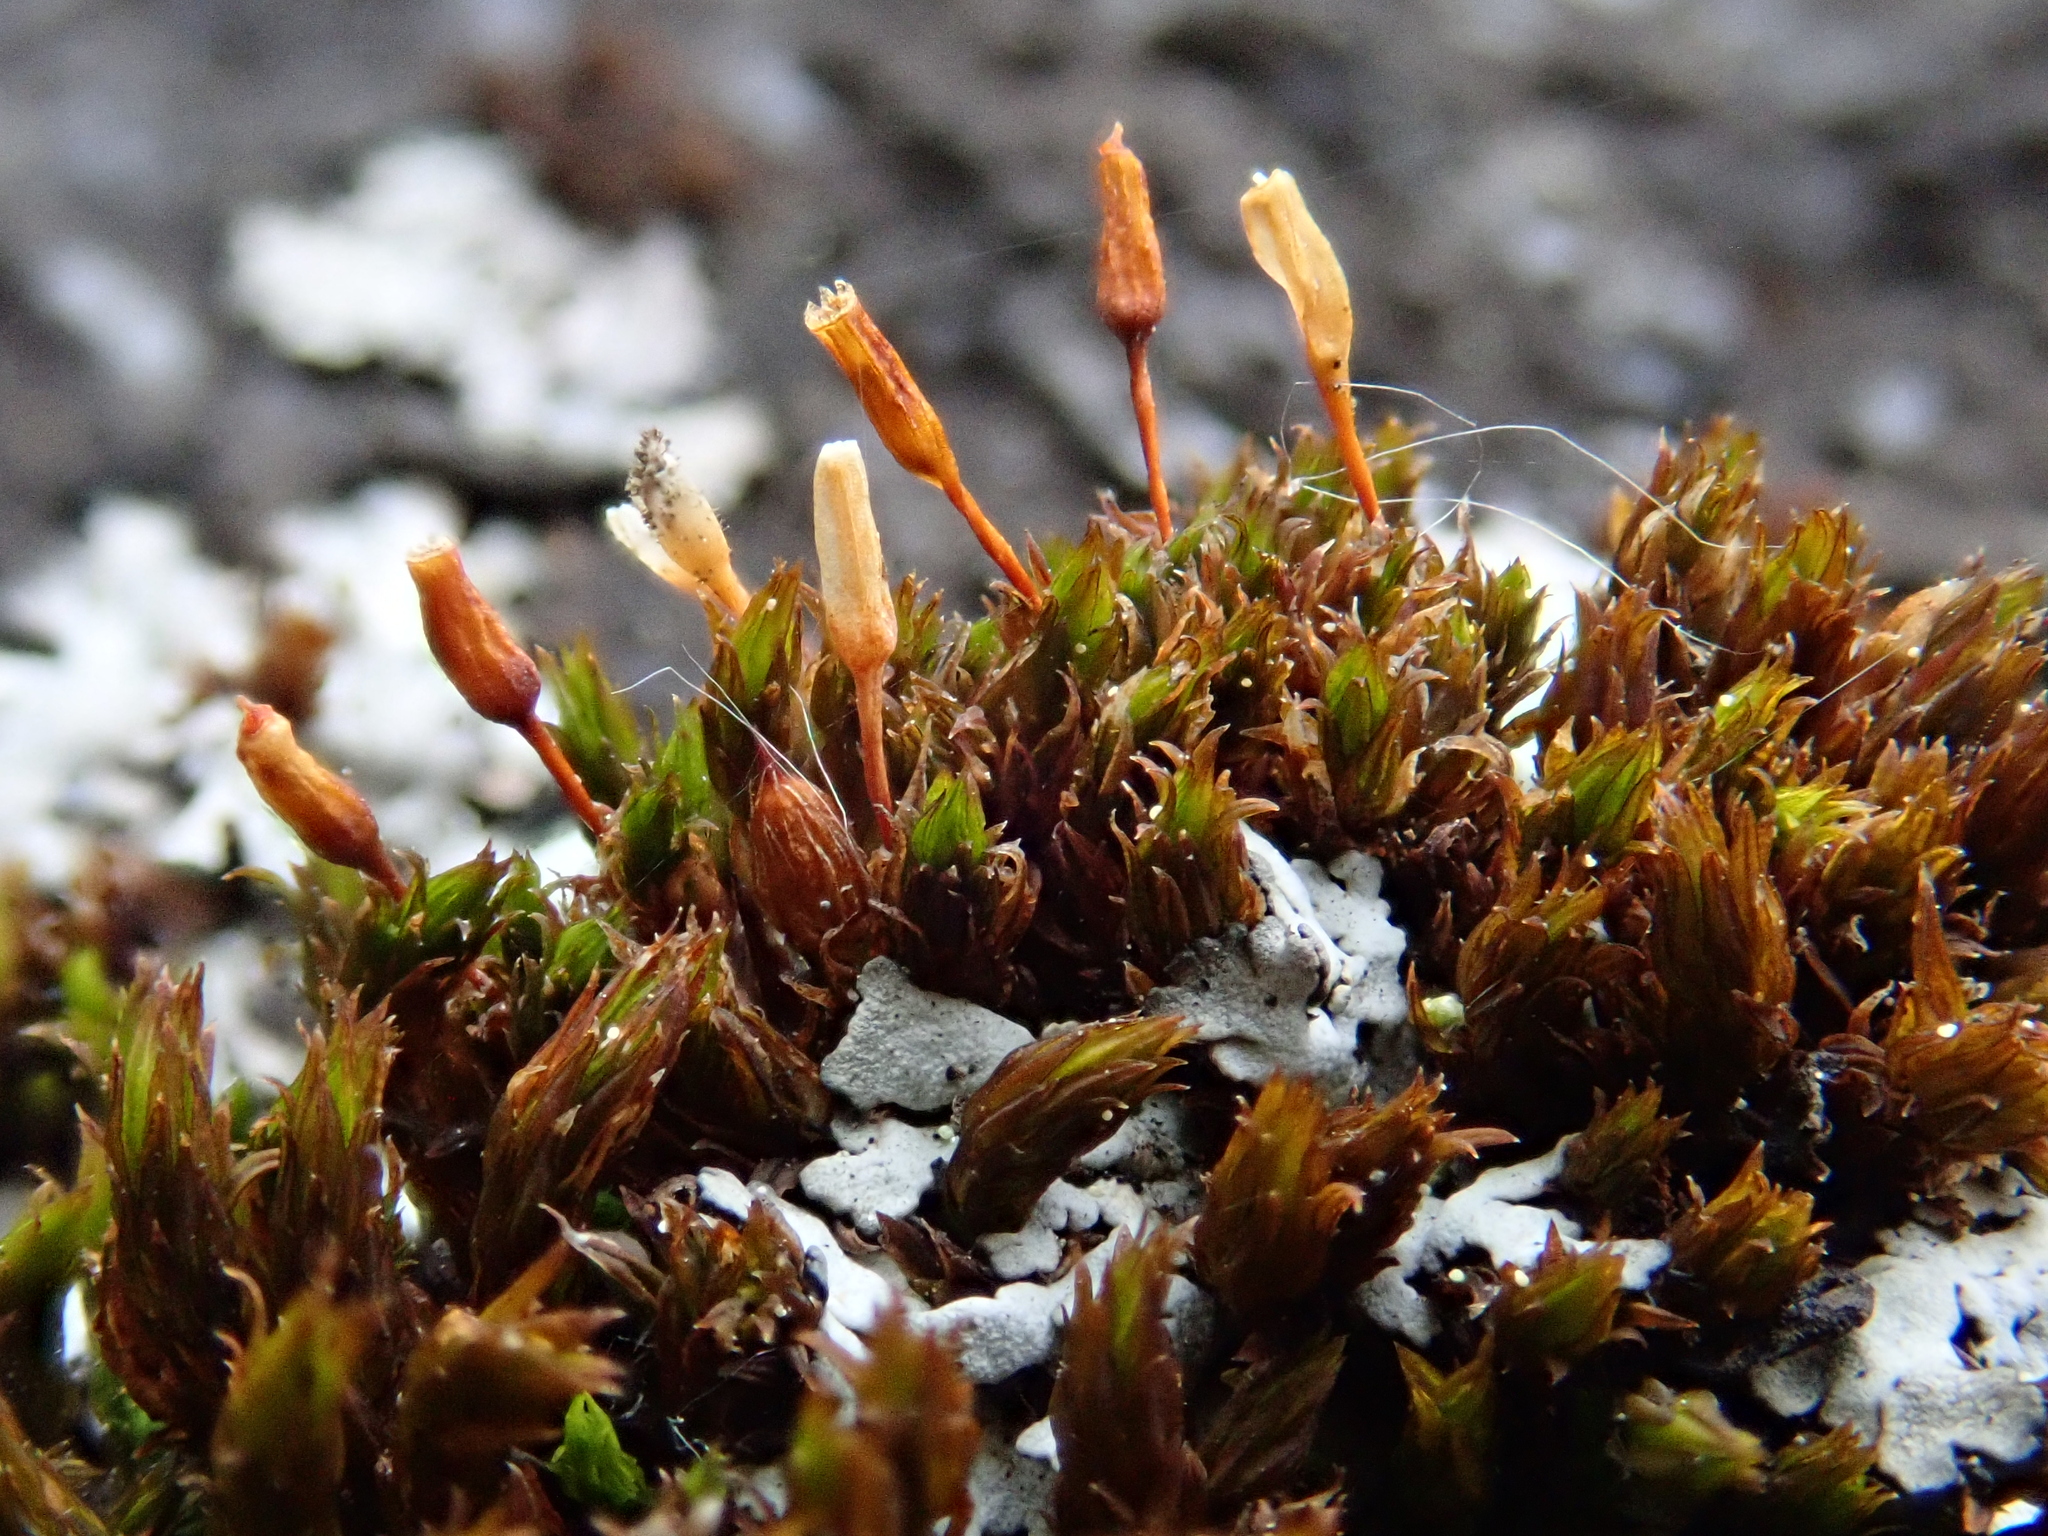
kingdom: Plantae
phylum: Bryophyta
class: Bryopsida
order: Orthotrichales
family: Orthotrichaceae
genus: Orthotrichum
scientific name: Orthotrichum anomalum
